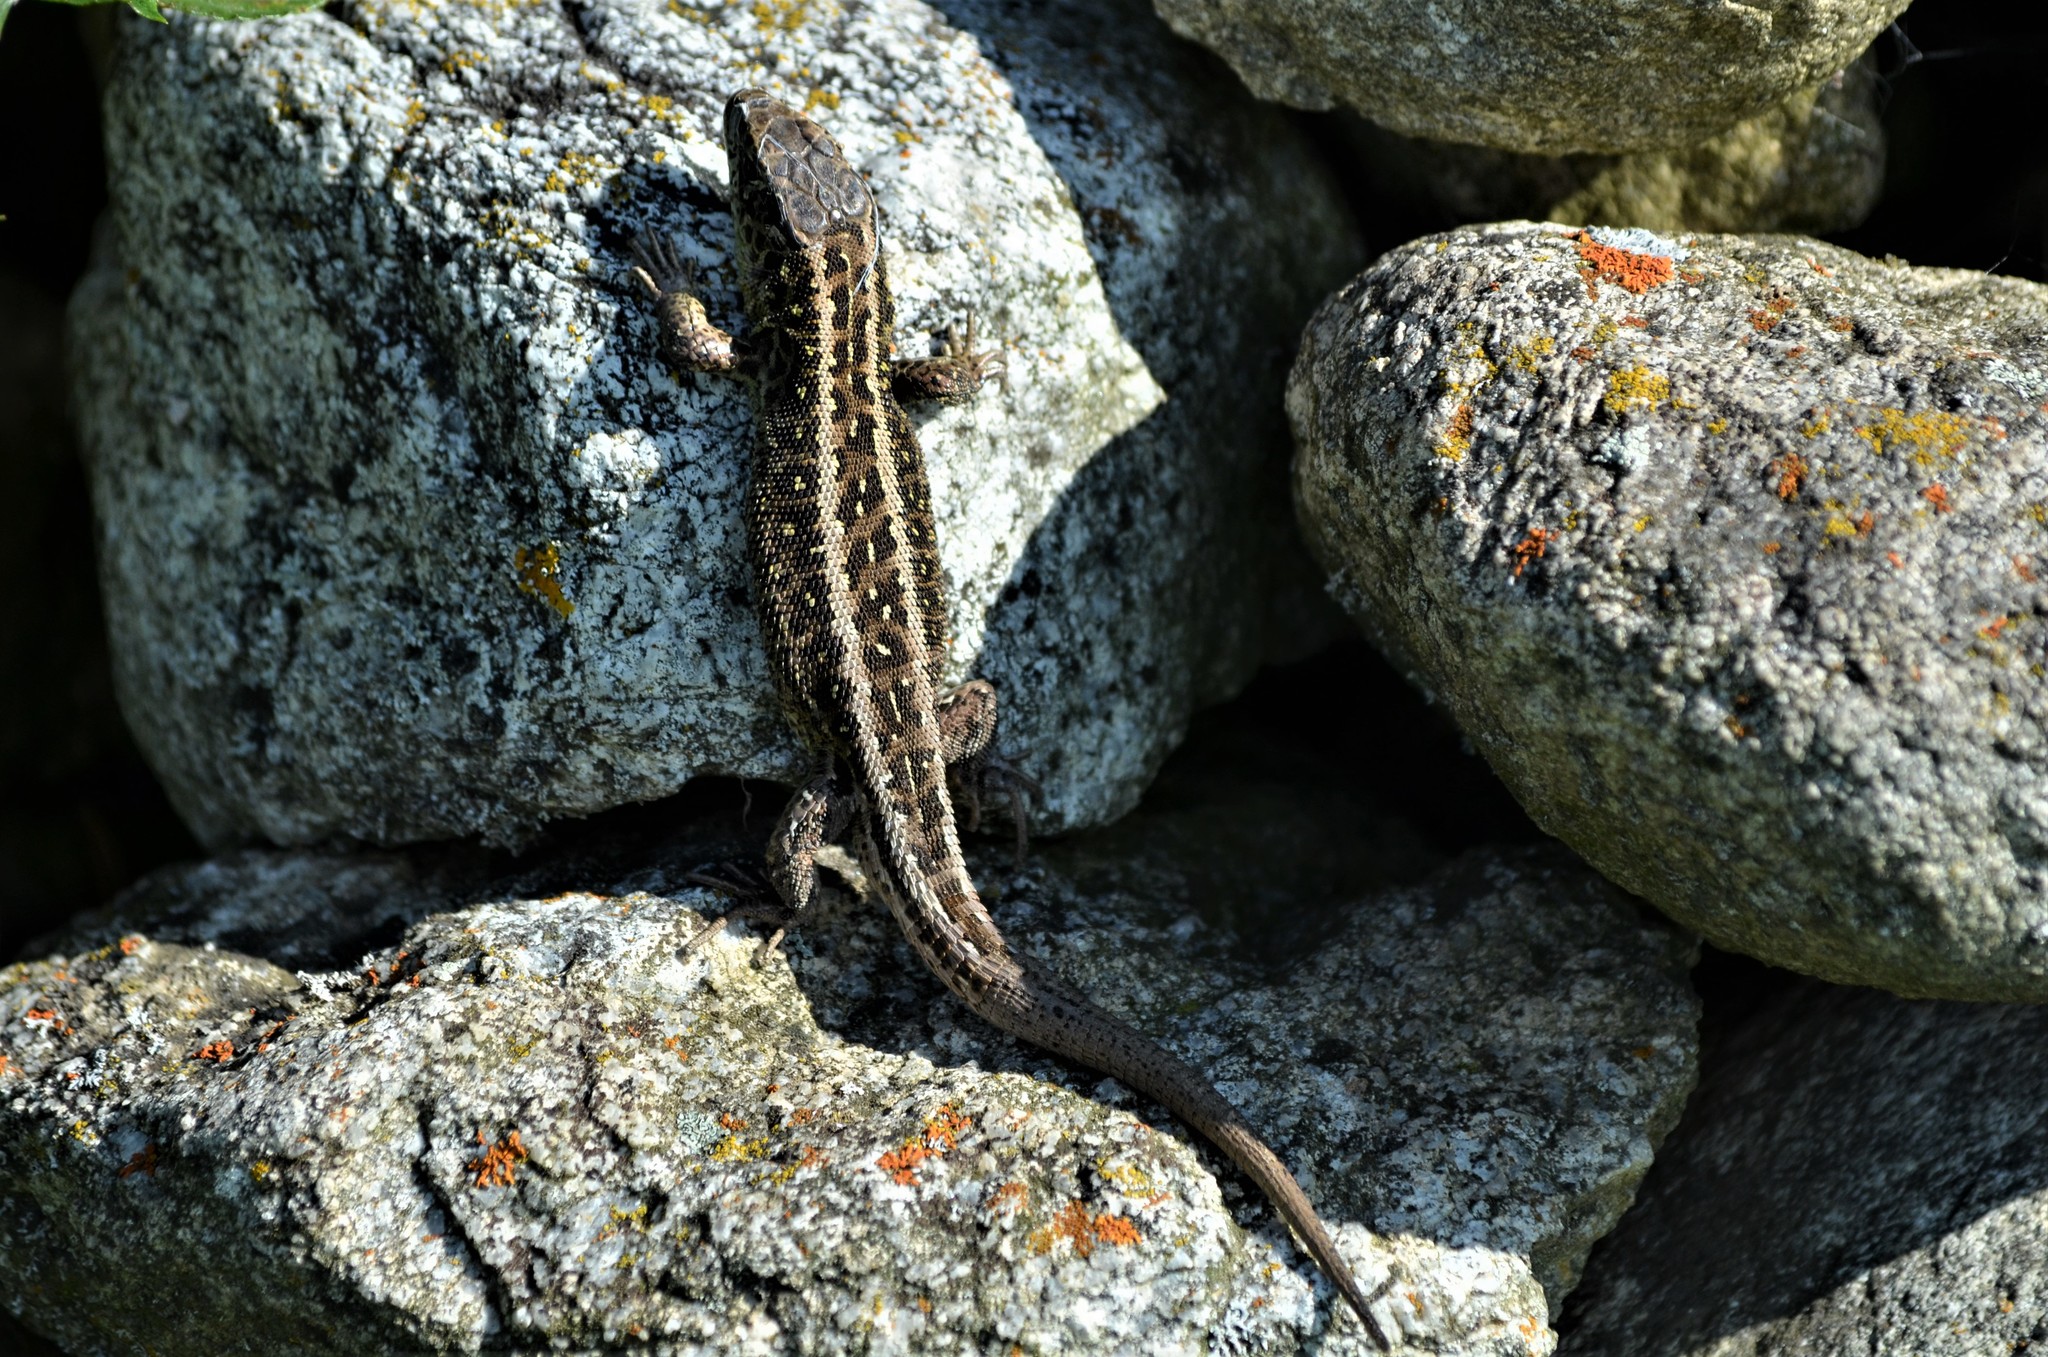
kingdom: Animalia
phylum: Chordata
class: Squamata
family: Lacertidae
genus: Lacerta
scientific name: Lacerta agilis
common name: Sand lizard
